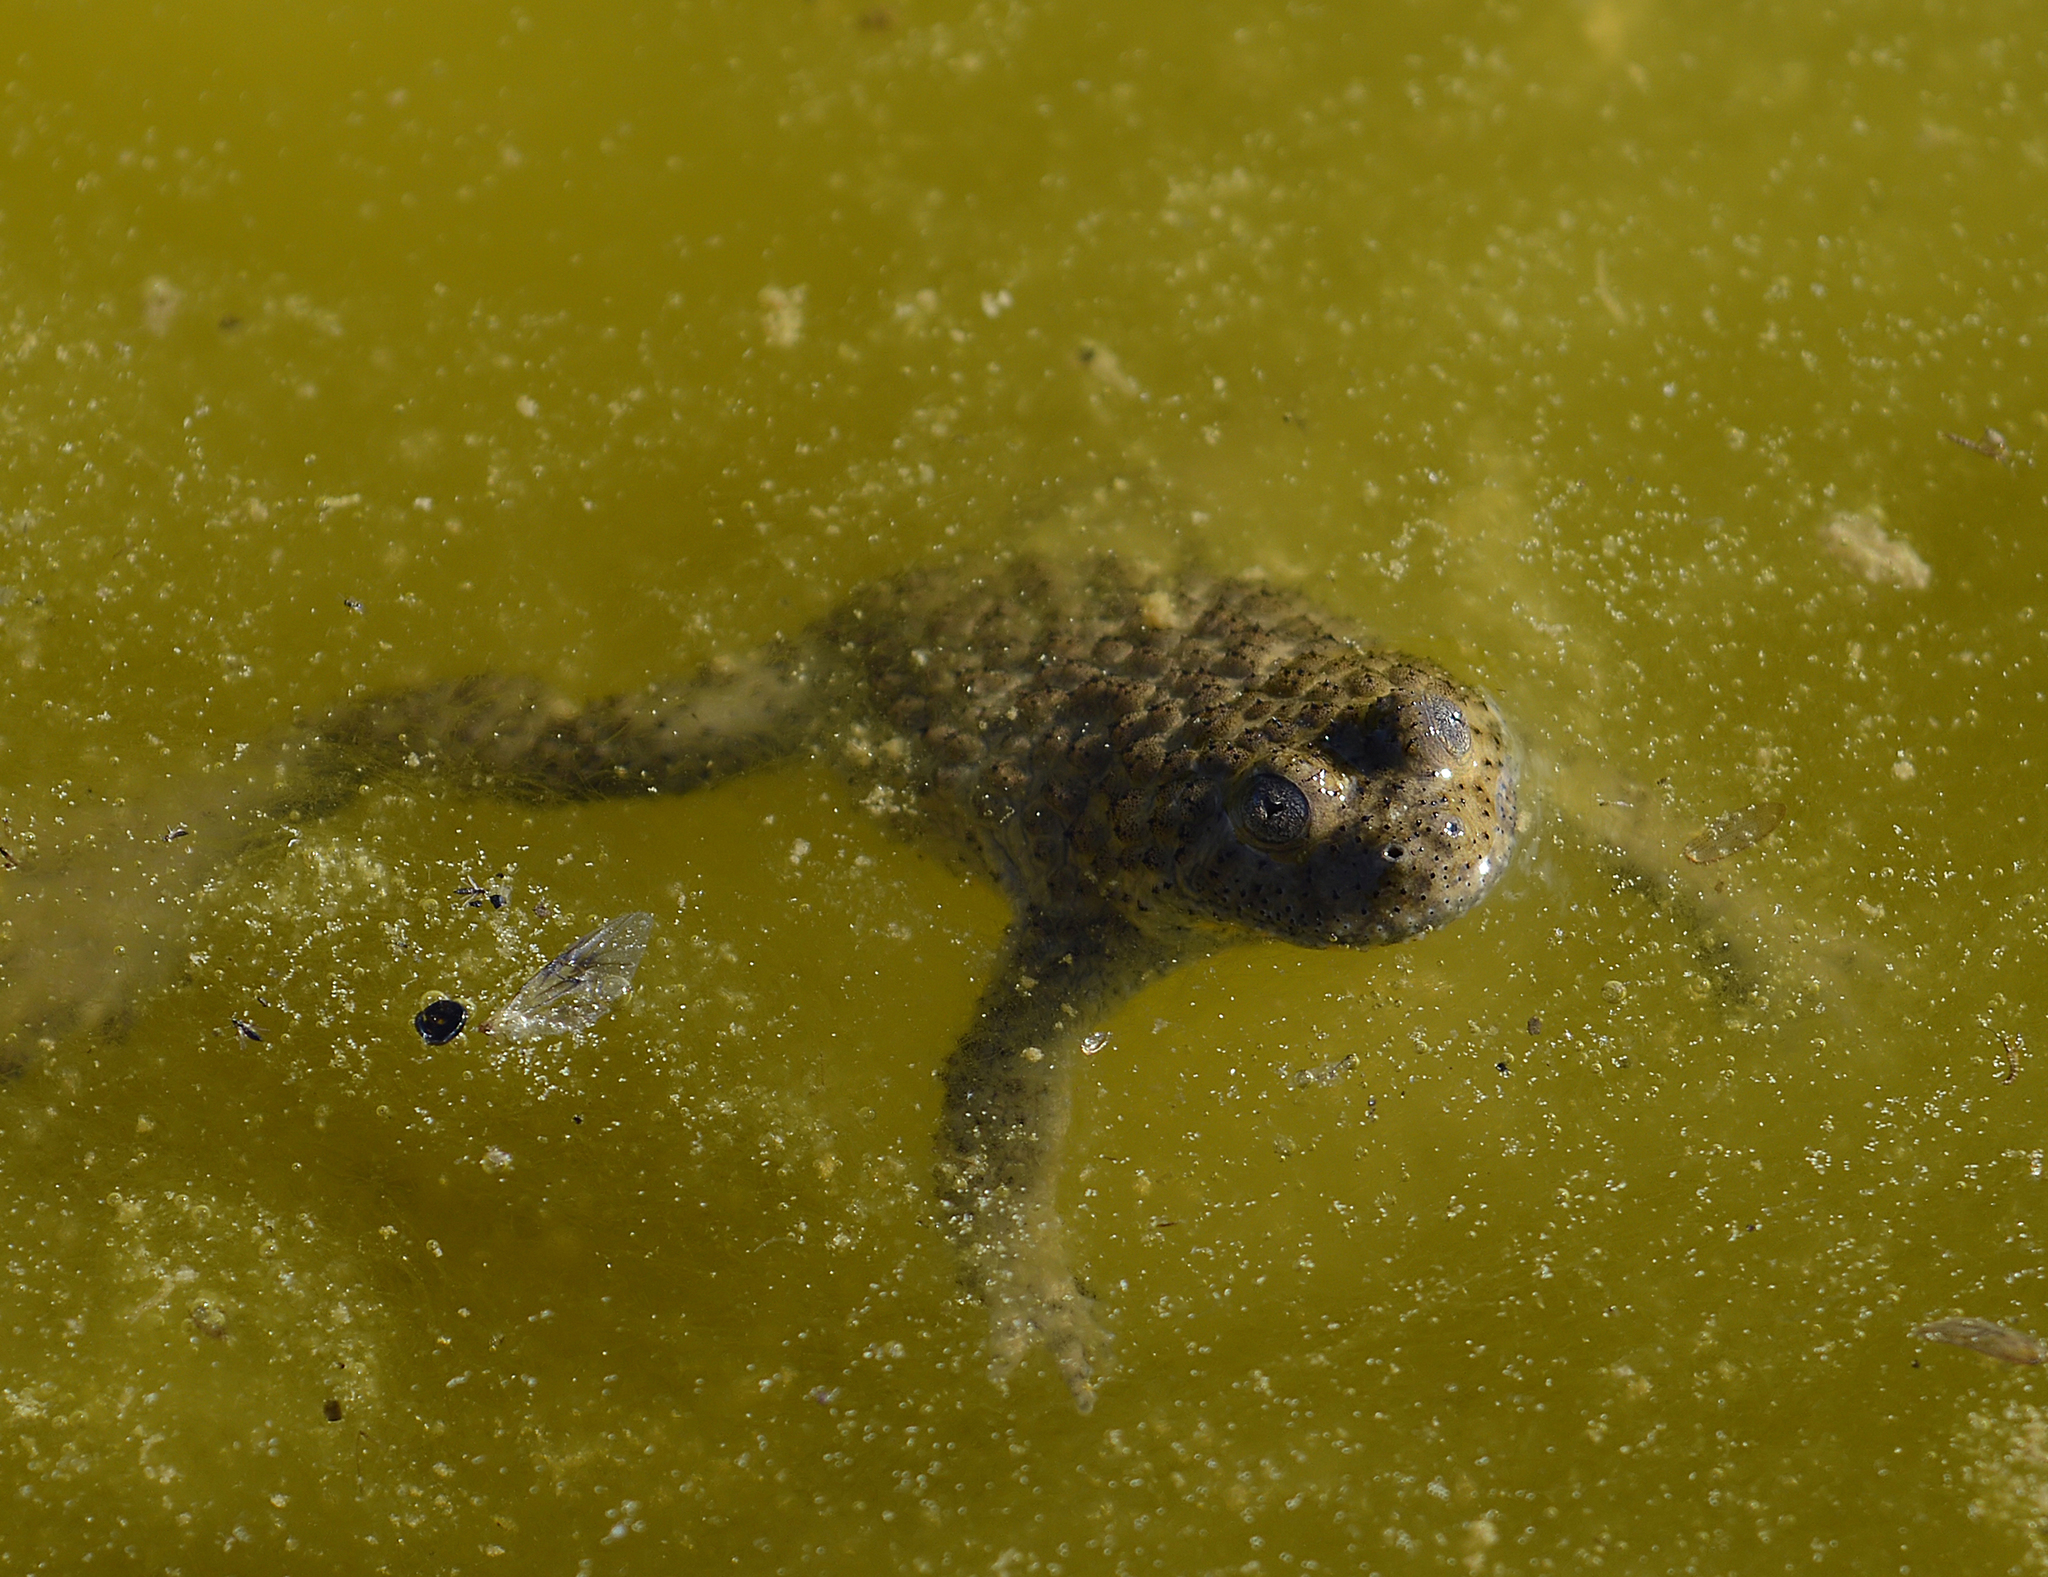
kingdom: Animalia
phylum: Chordata
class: Amphibia
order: Anura
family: Bombinatoridae
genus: Bombina
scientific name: Bombina variegata
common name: Yellow-bellied toad
